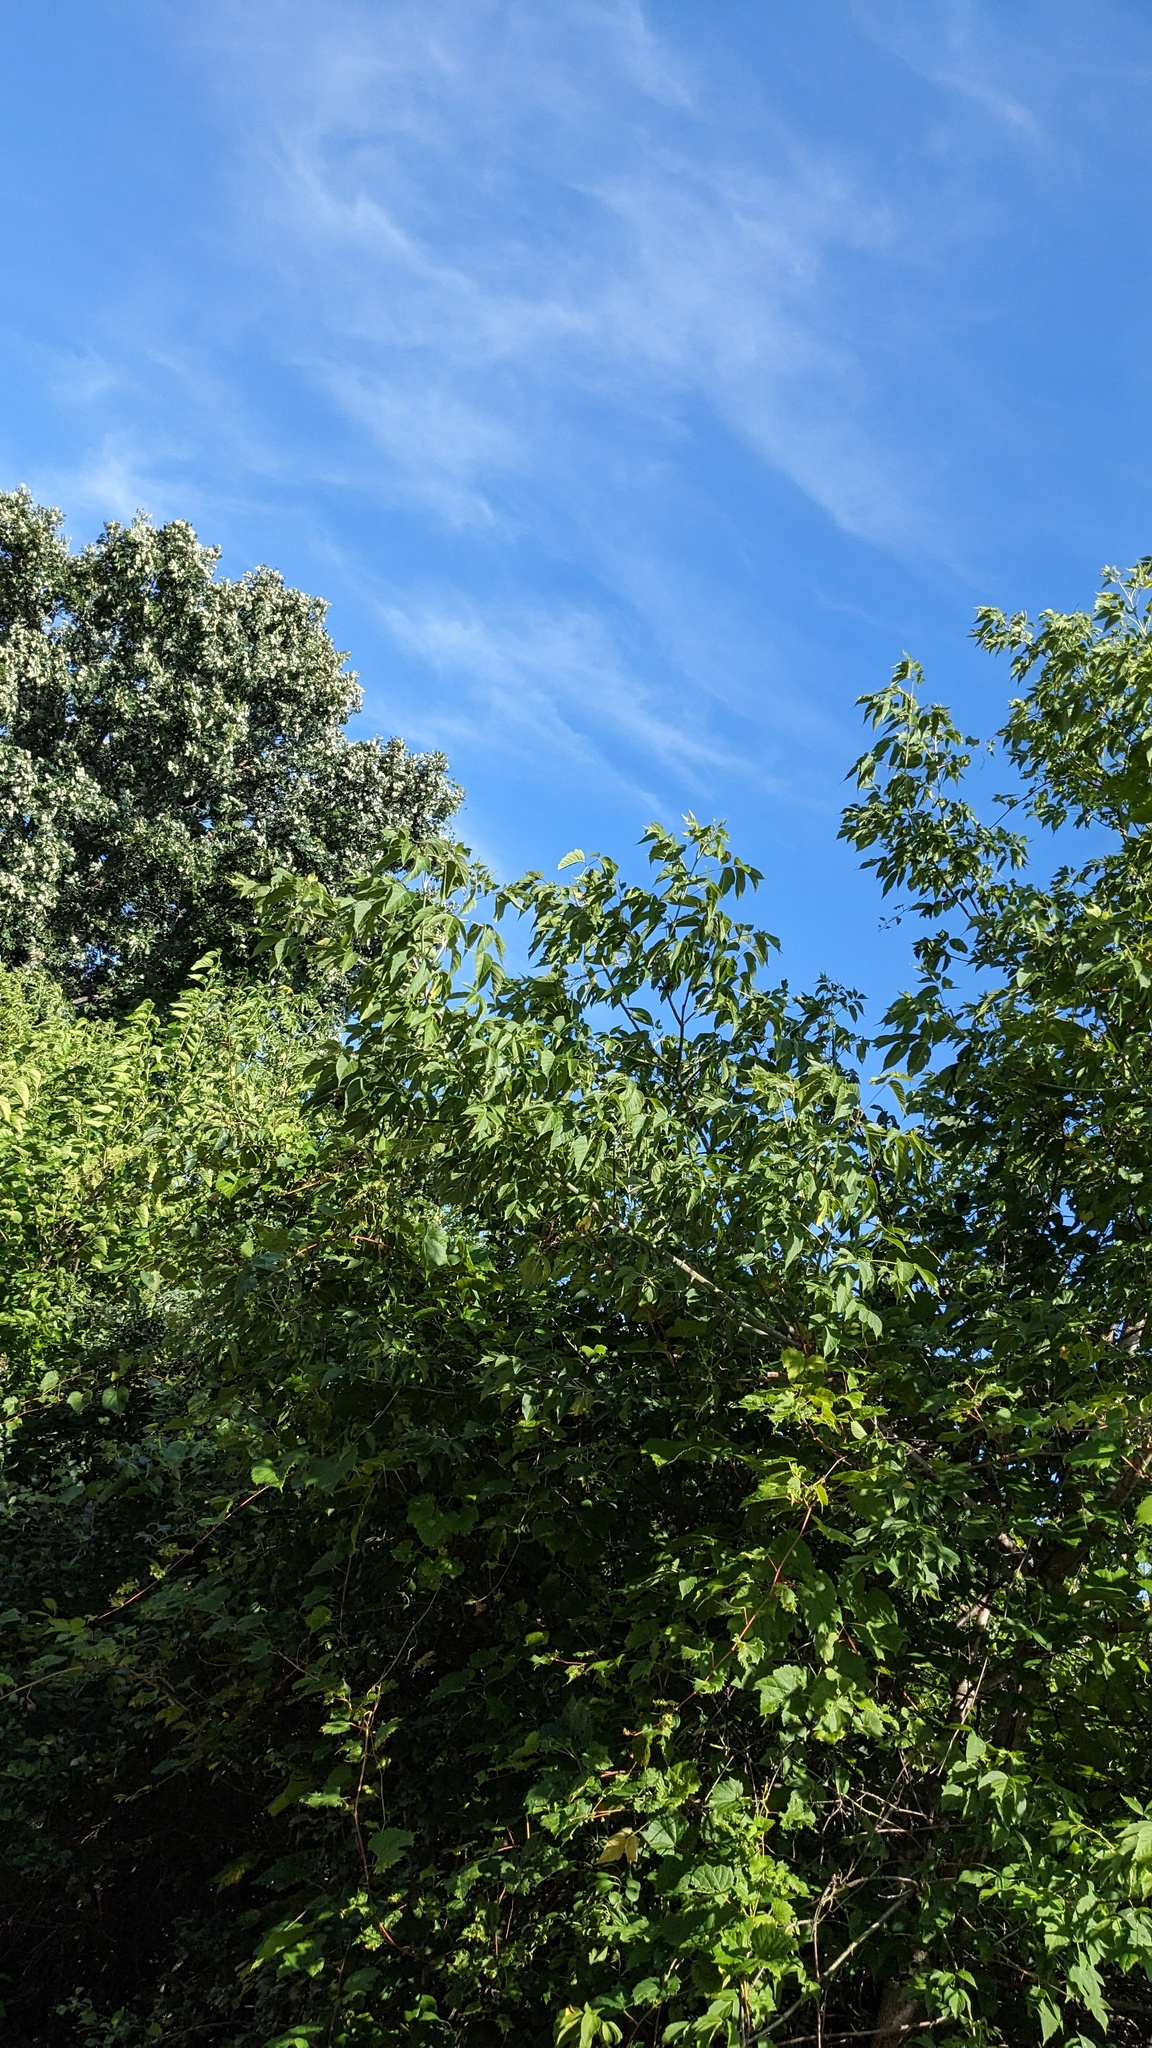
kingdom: Plantae
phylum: Tracheophyta
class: Magnoliopsida
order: Sapindales
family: Sapindaceae
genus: Acer
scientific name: Acer negundo
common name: Ashleaf maple
